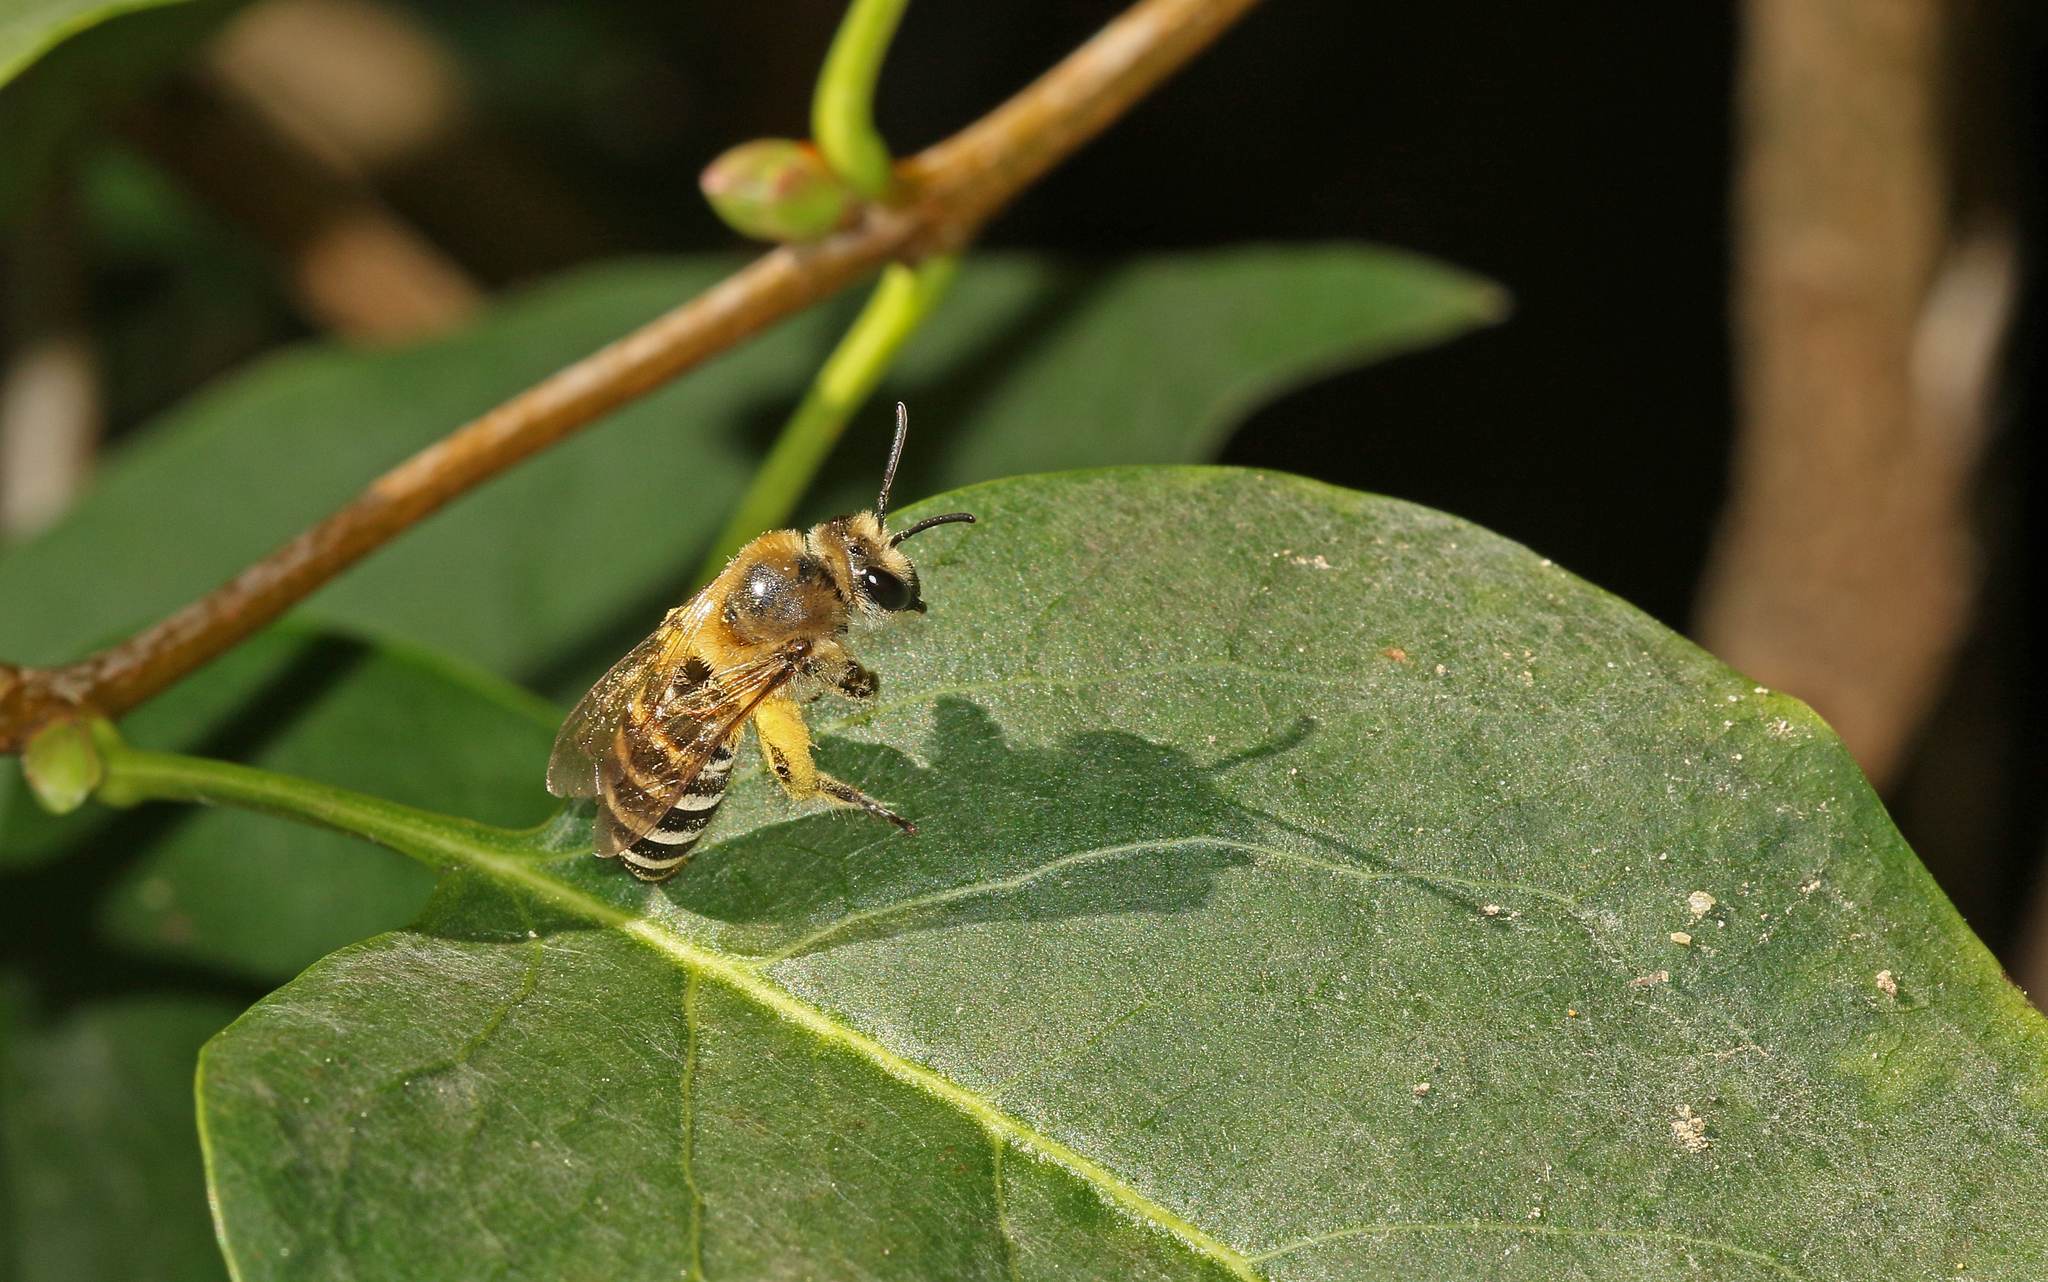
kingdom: Animalia
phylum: Arthropoda
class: Insecta
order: Hymenoptera
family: Colletidae
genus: Colletes
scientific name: Colletes hederae
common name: Ivy bee
